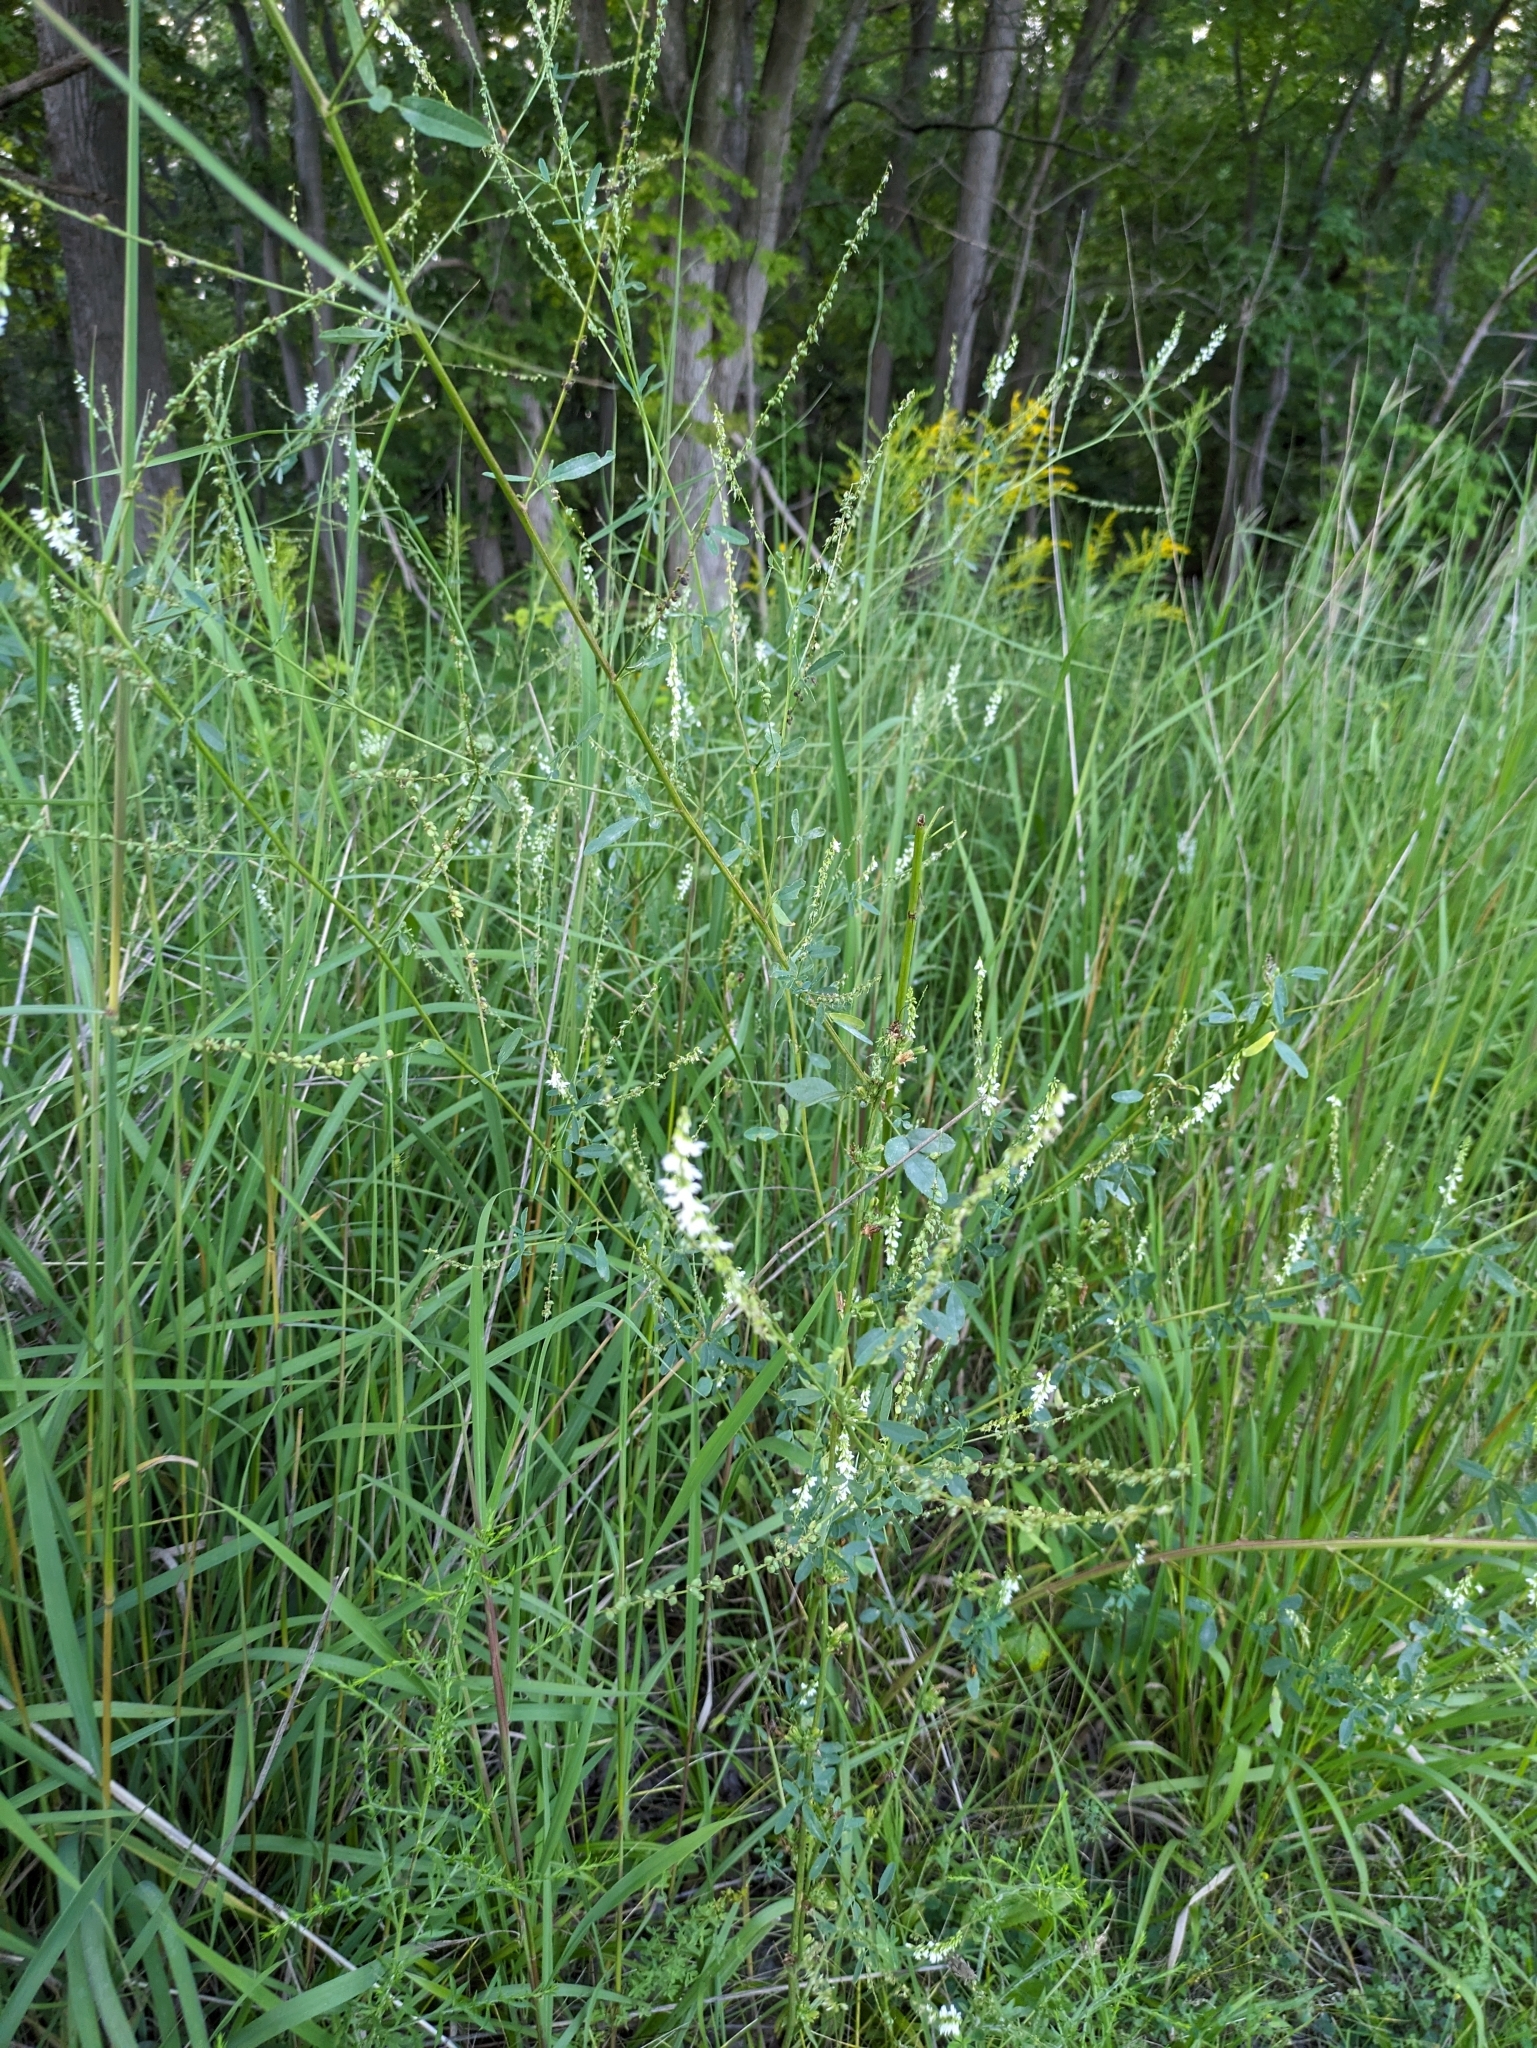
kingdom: Plantae
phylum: Tracheophyta
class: Magnoliopsida
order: Fabales
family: Fabaceae
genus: Melilotus
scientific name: Melilotus albus
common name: White melilot
